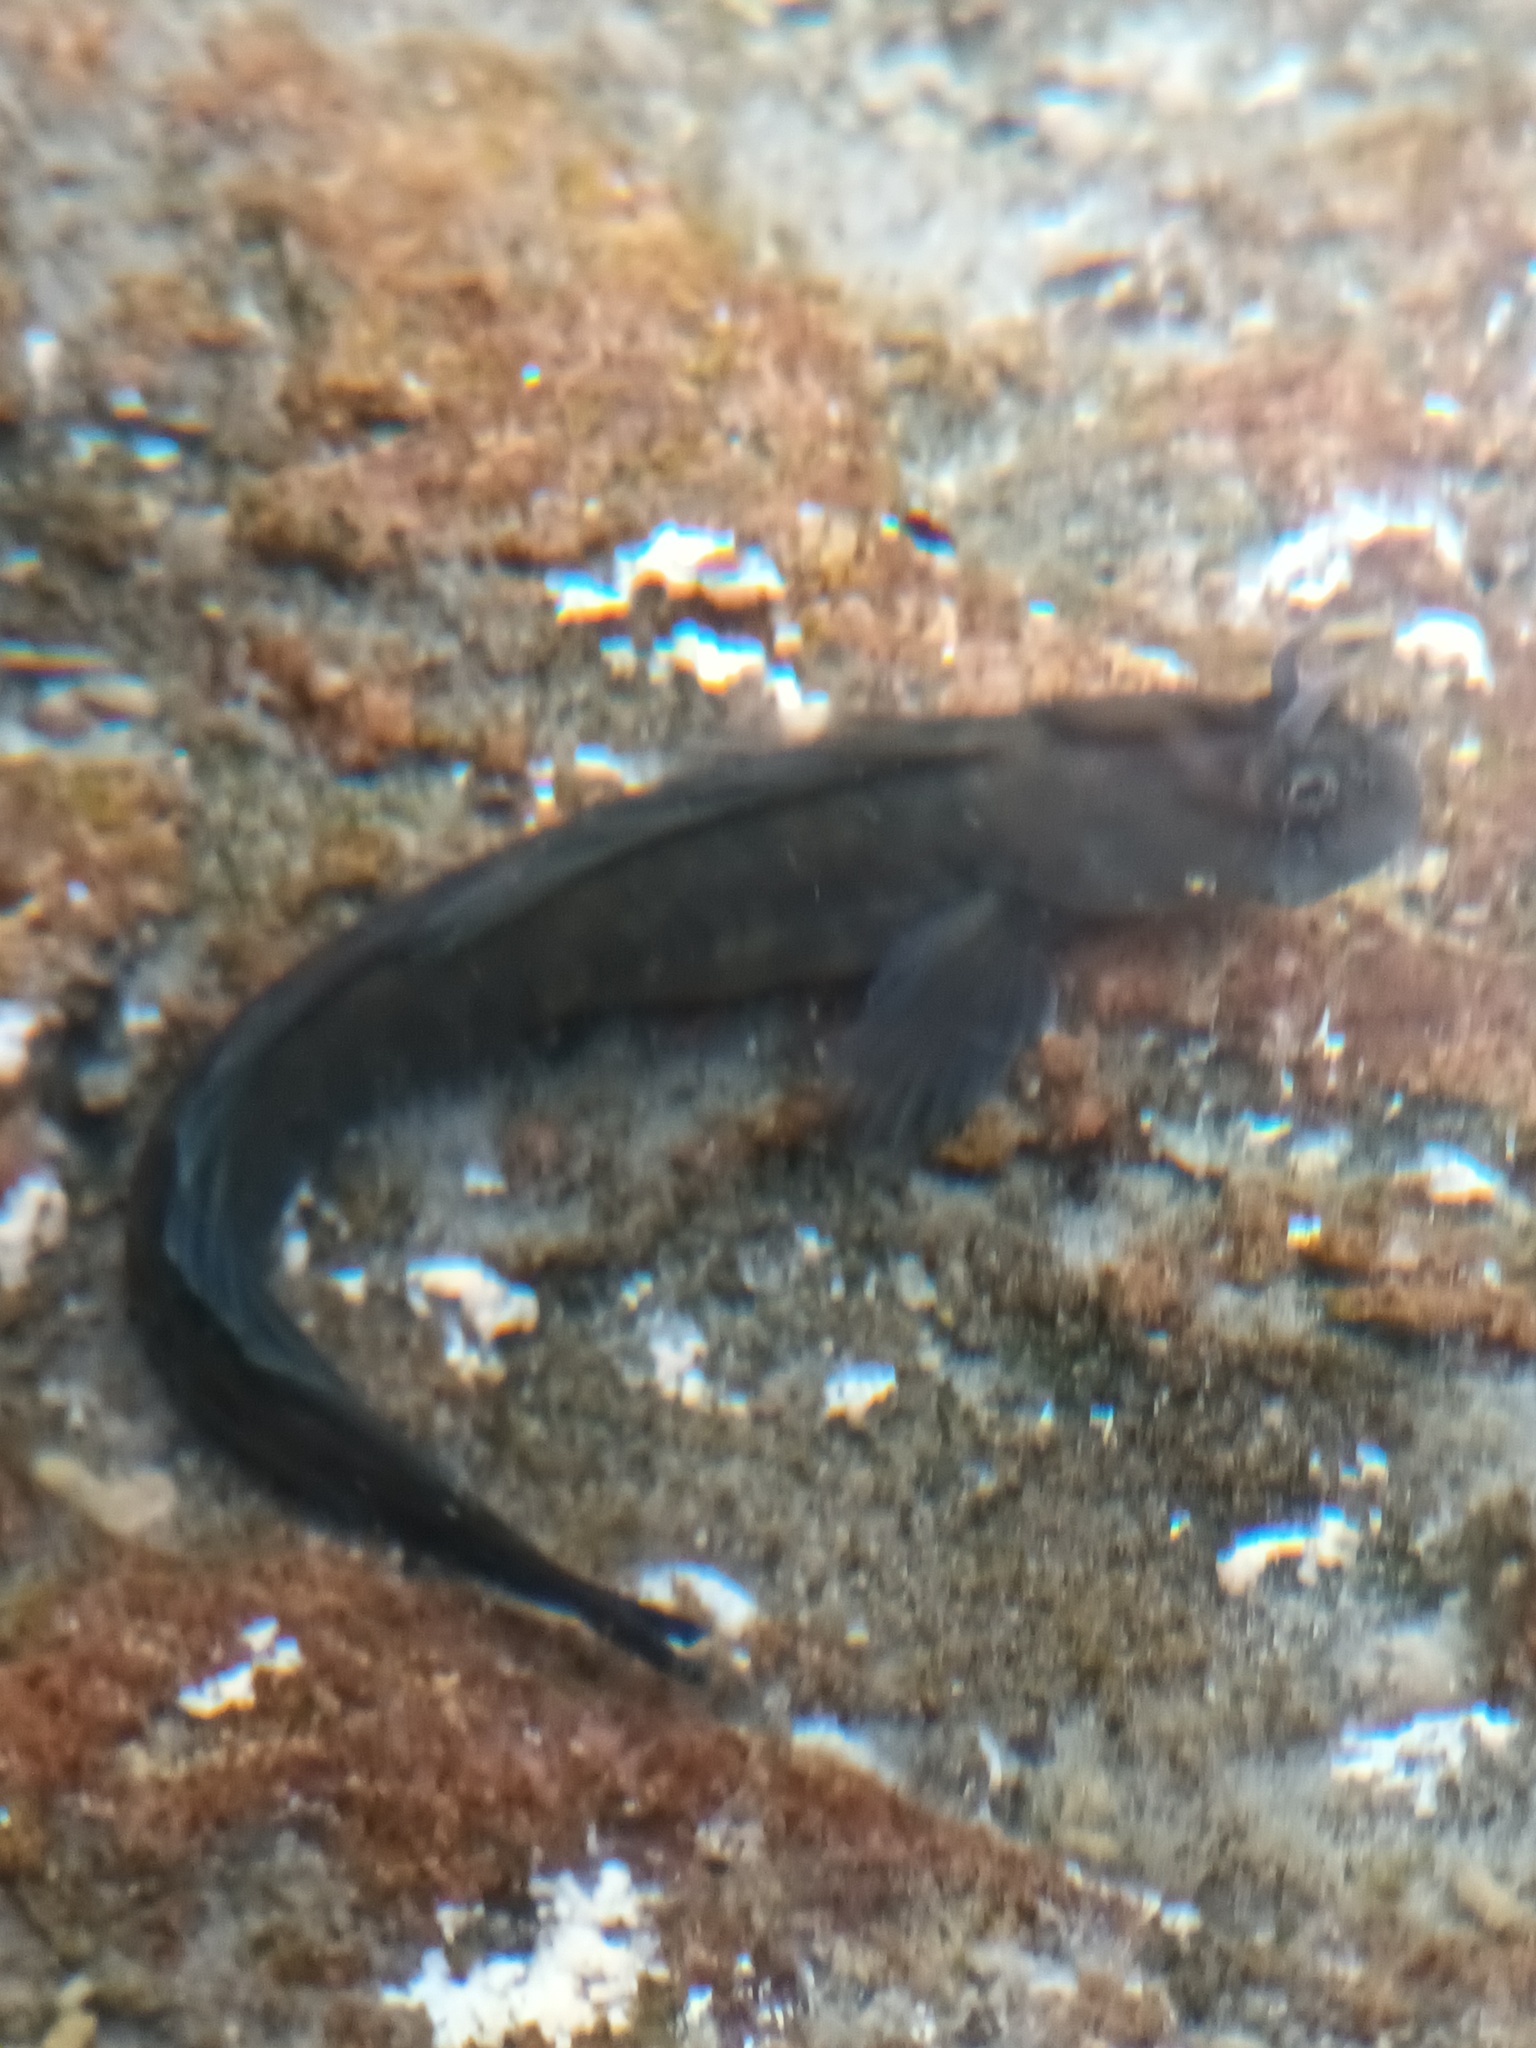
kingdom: Animalia
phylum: Chordata
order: Perciformes
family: Blenniidae
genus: Istiblennius
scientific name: Istiblennius zebra
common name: Zebra blenny
